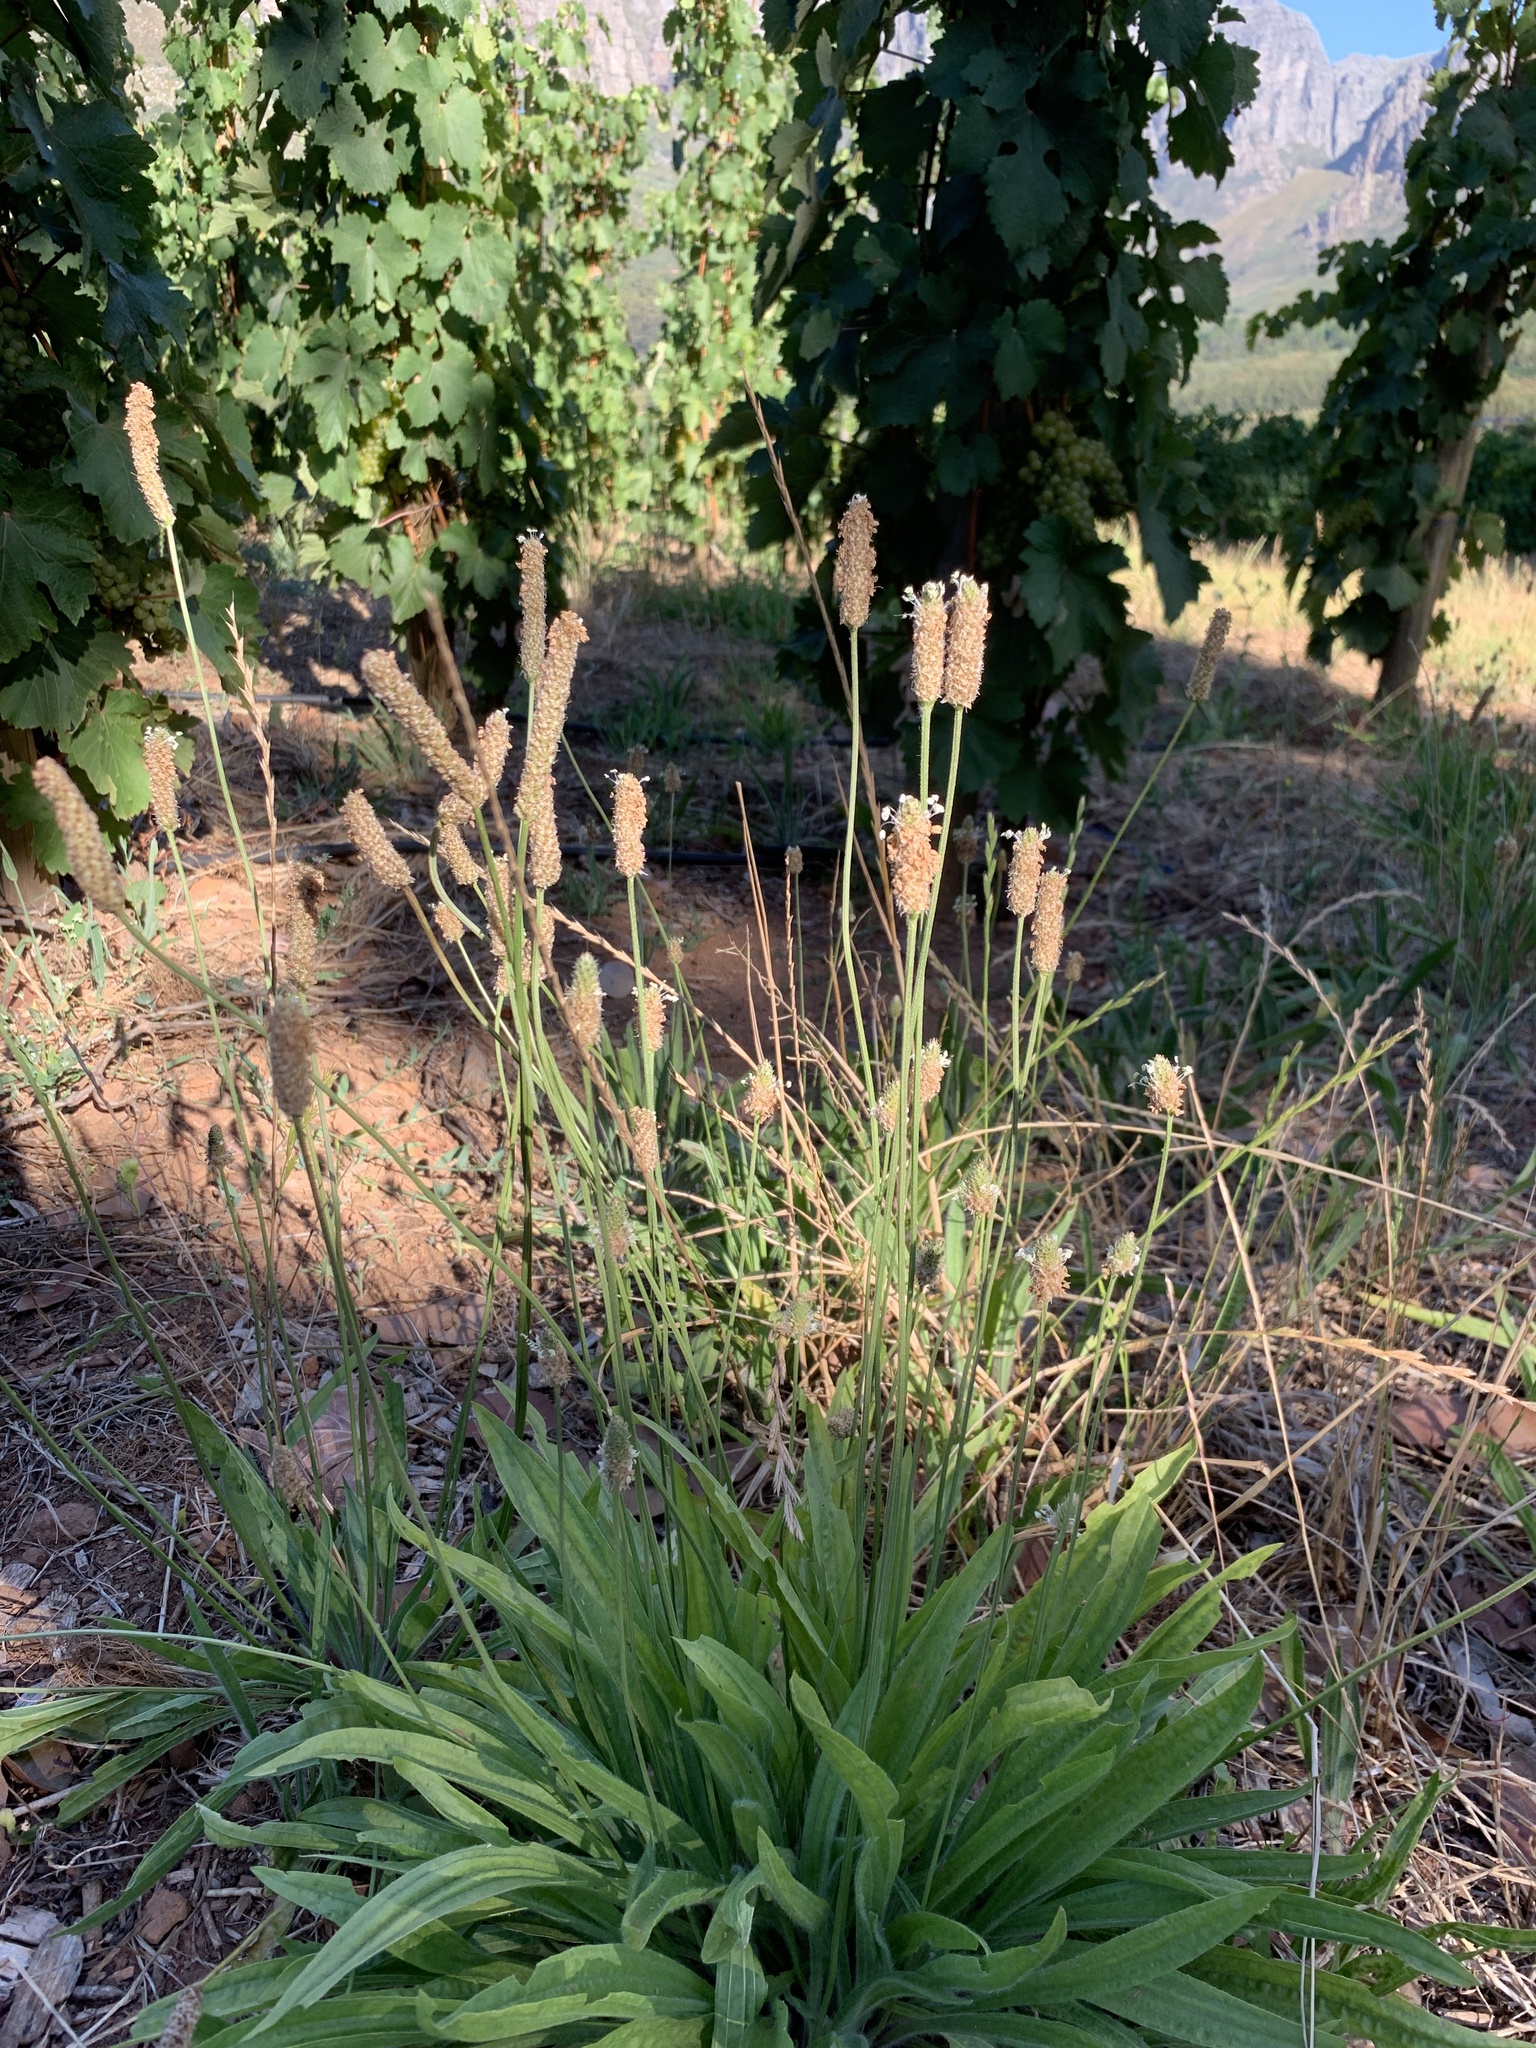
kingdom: Plantae
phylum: Tracheophyta
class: Magnoliopsida
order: Lamiales
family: Plantaginaceae
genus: Plantago
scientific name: Plantago lanceolata
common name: Ribwort plantain
